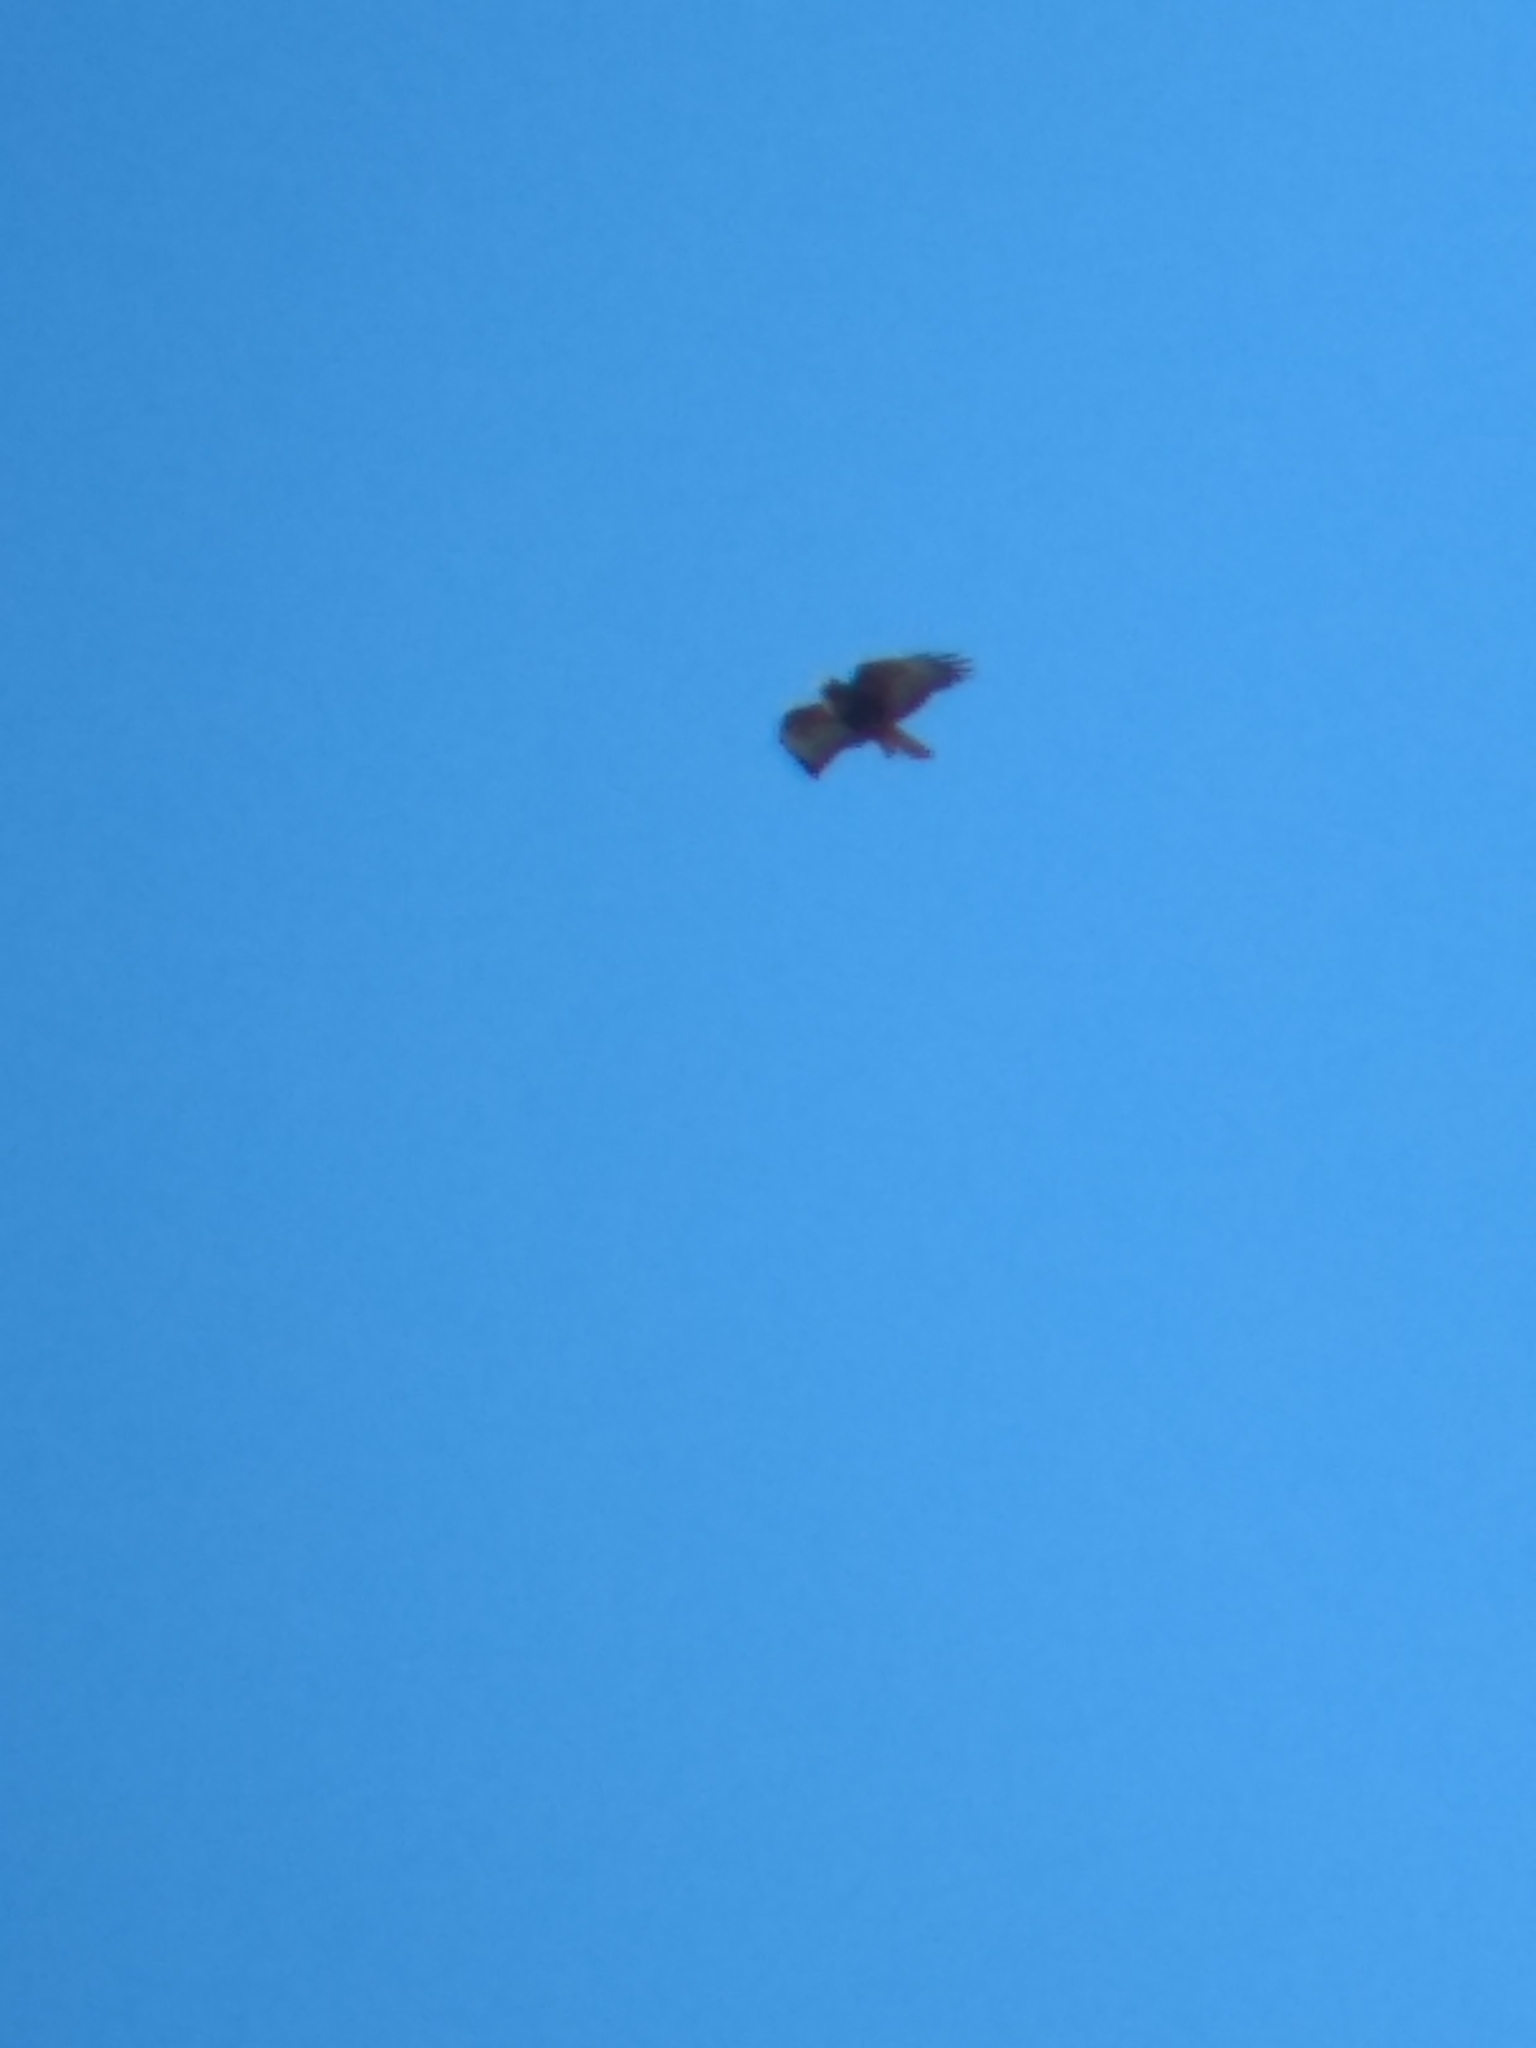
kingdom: Animalia
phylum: Chordata
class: Aves
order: Accipitriformes
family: Accipitridae
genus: Buteo
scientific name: Buteo jamaicensis
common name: Red-tailed hawk
